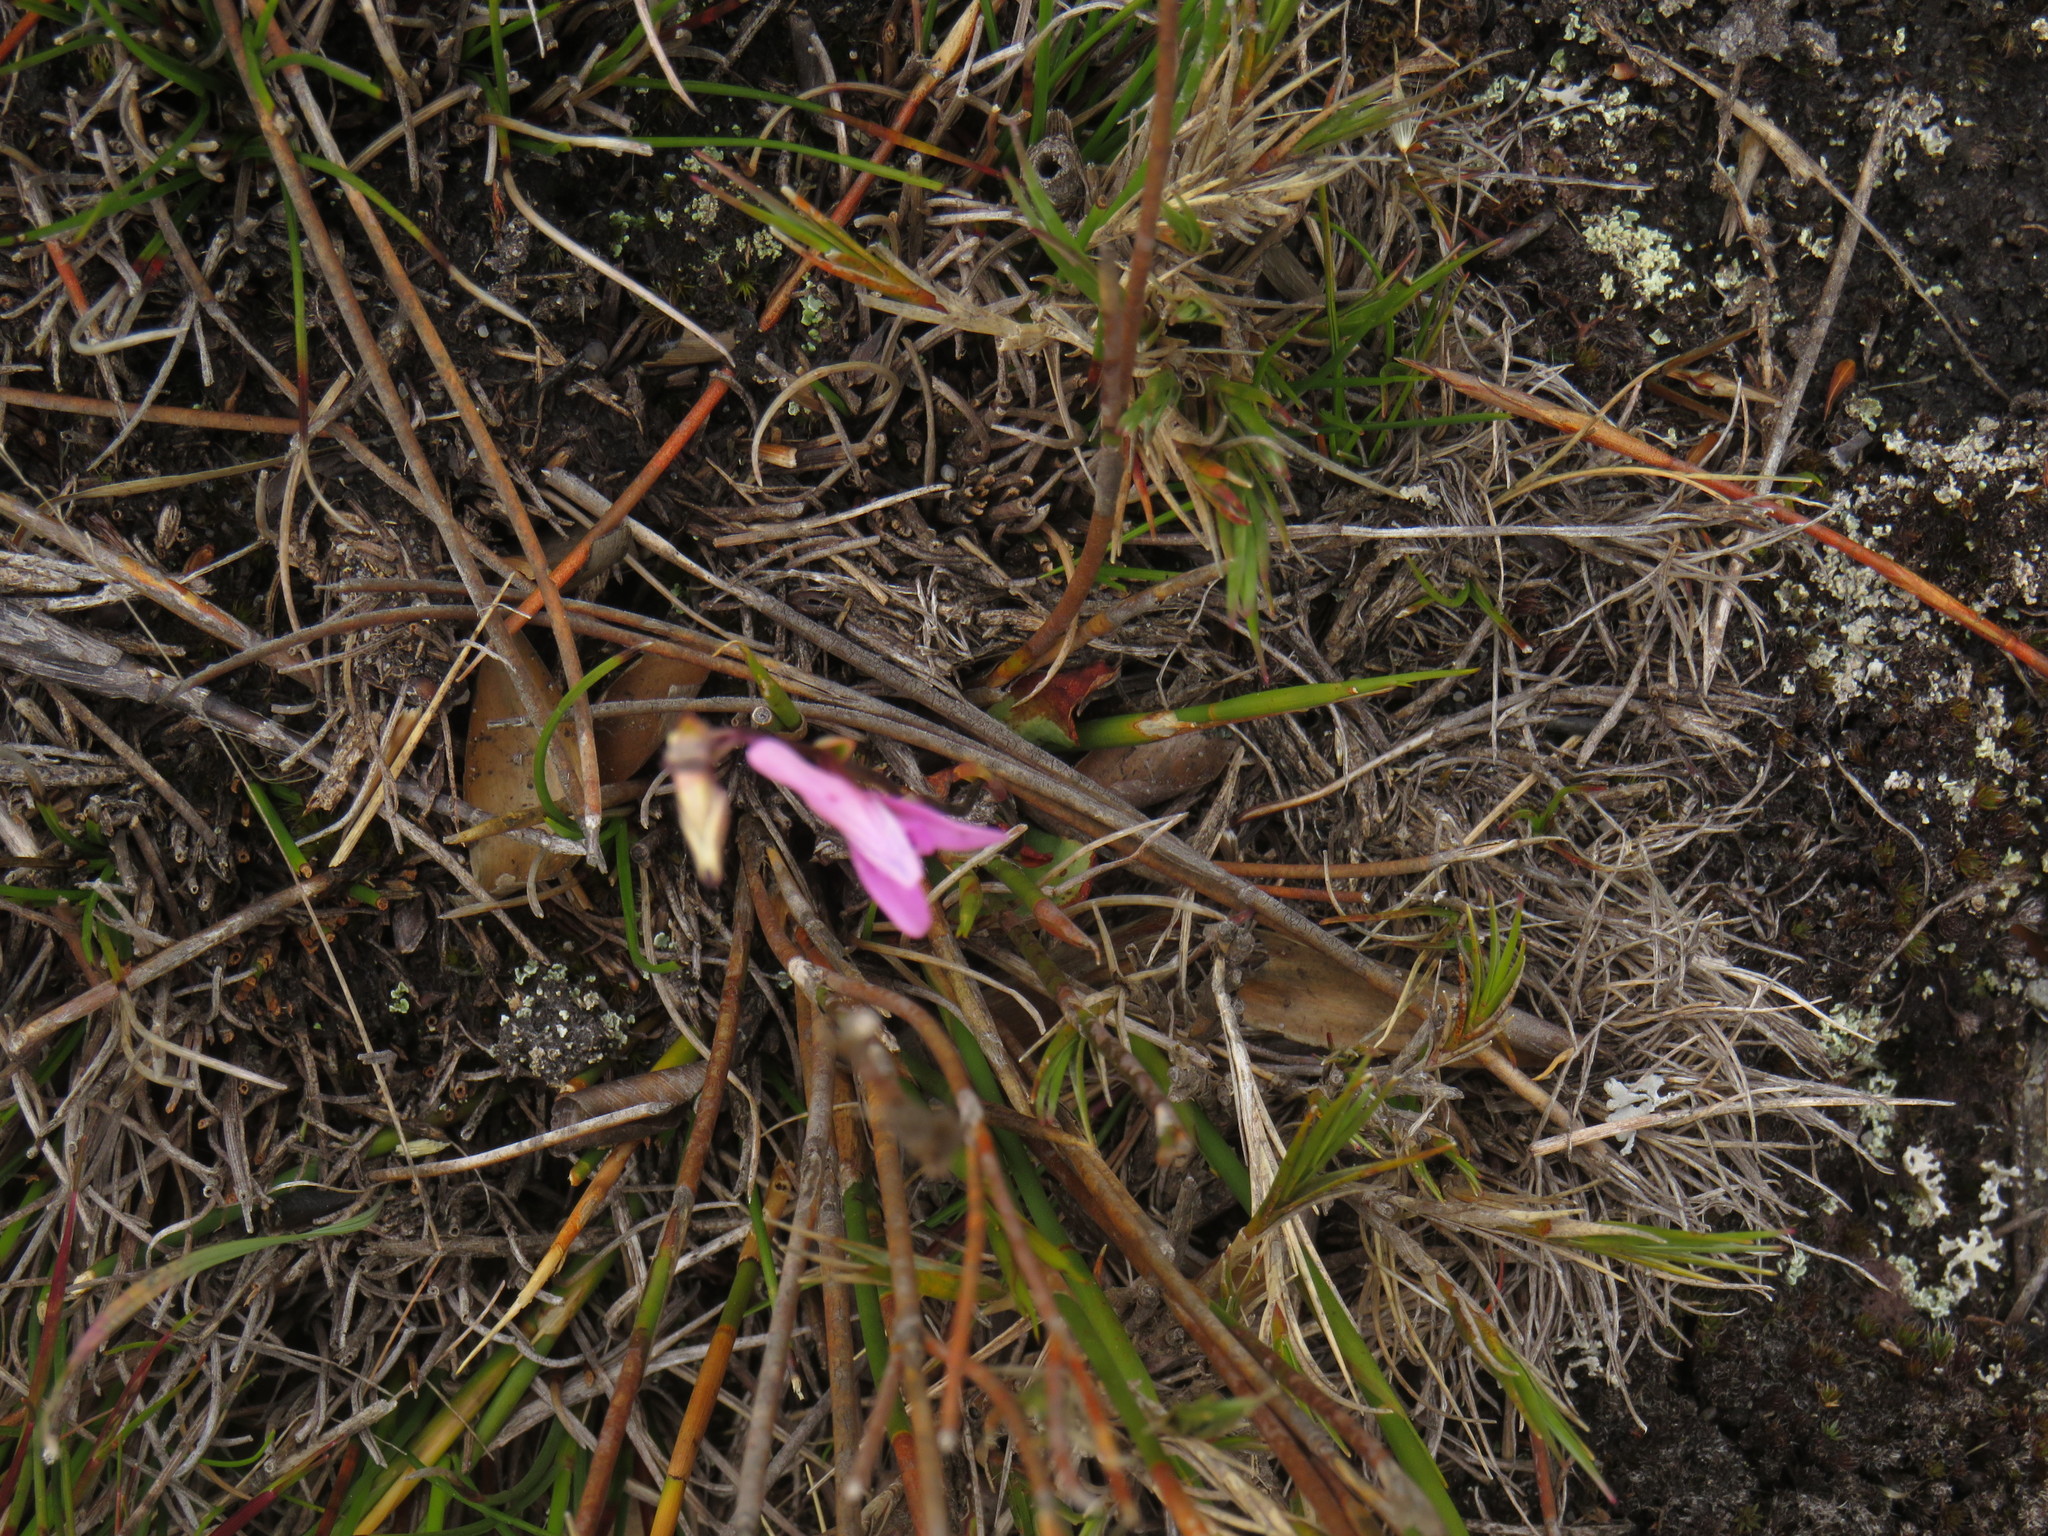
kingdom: Plantae
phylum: Tracheophyta
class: Liliopsida
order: Asparagales
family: Orchidaceae
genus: Disa
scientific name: Disa inflexa
